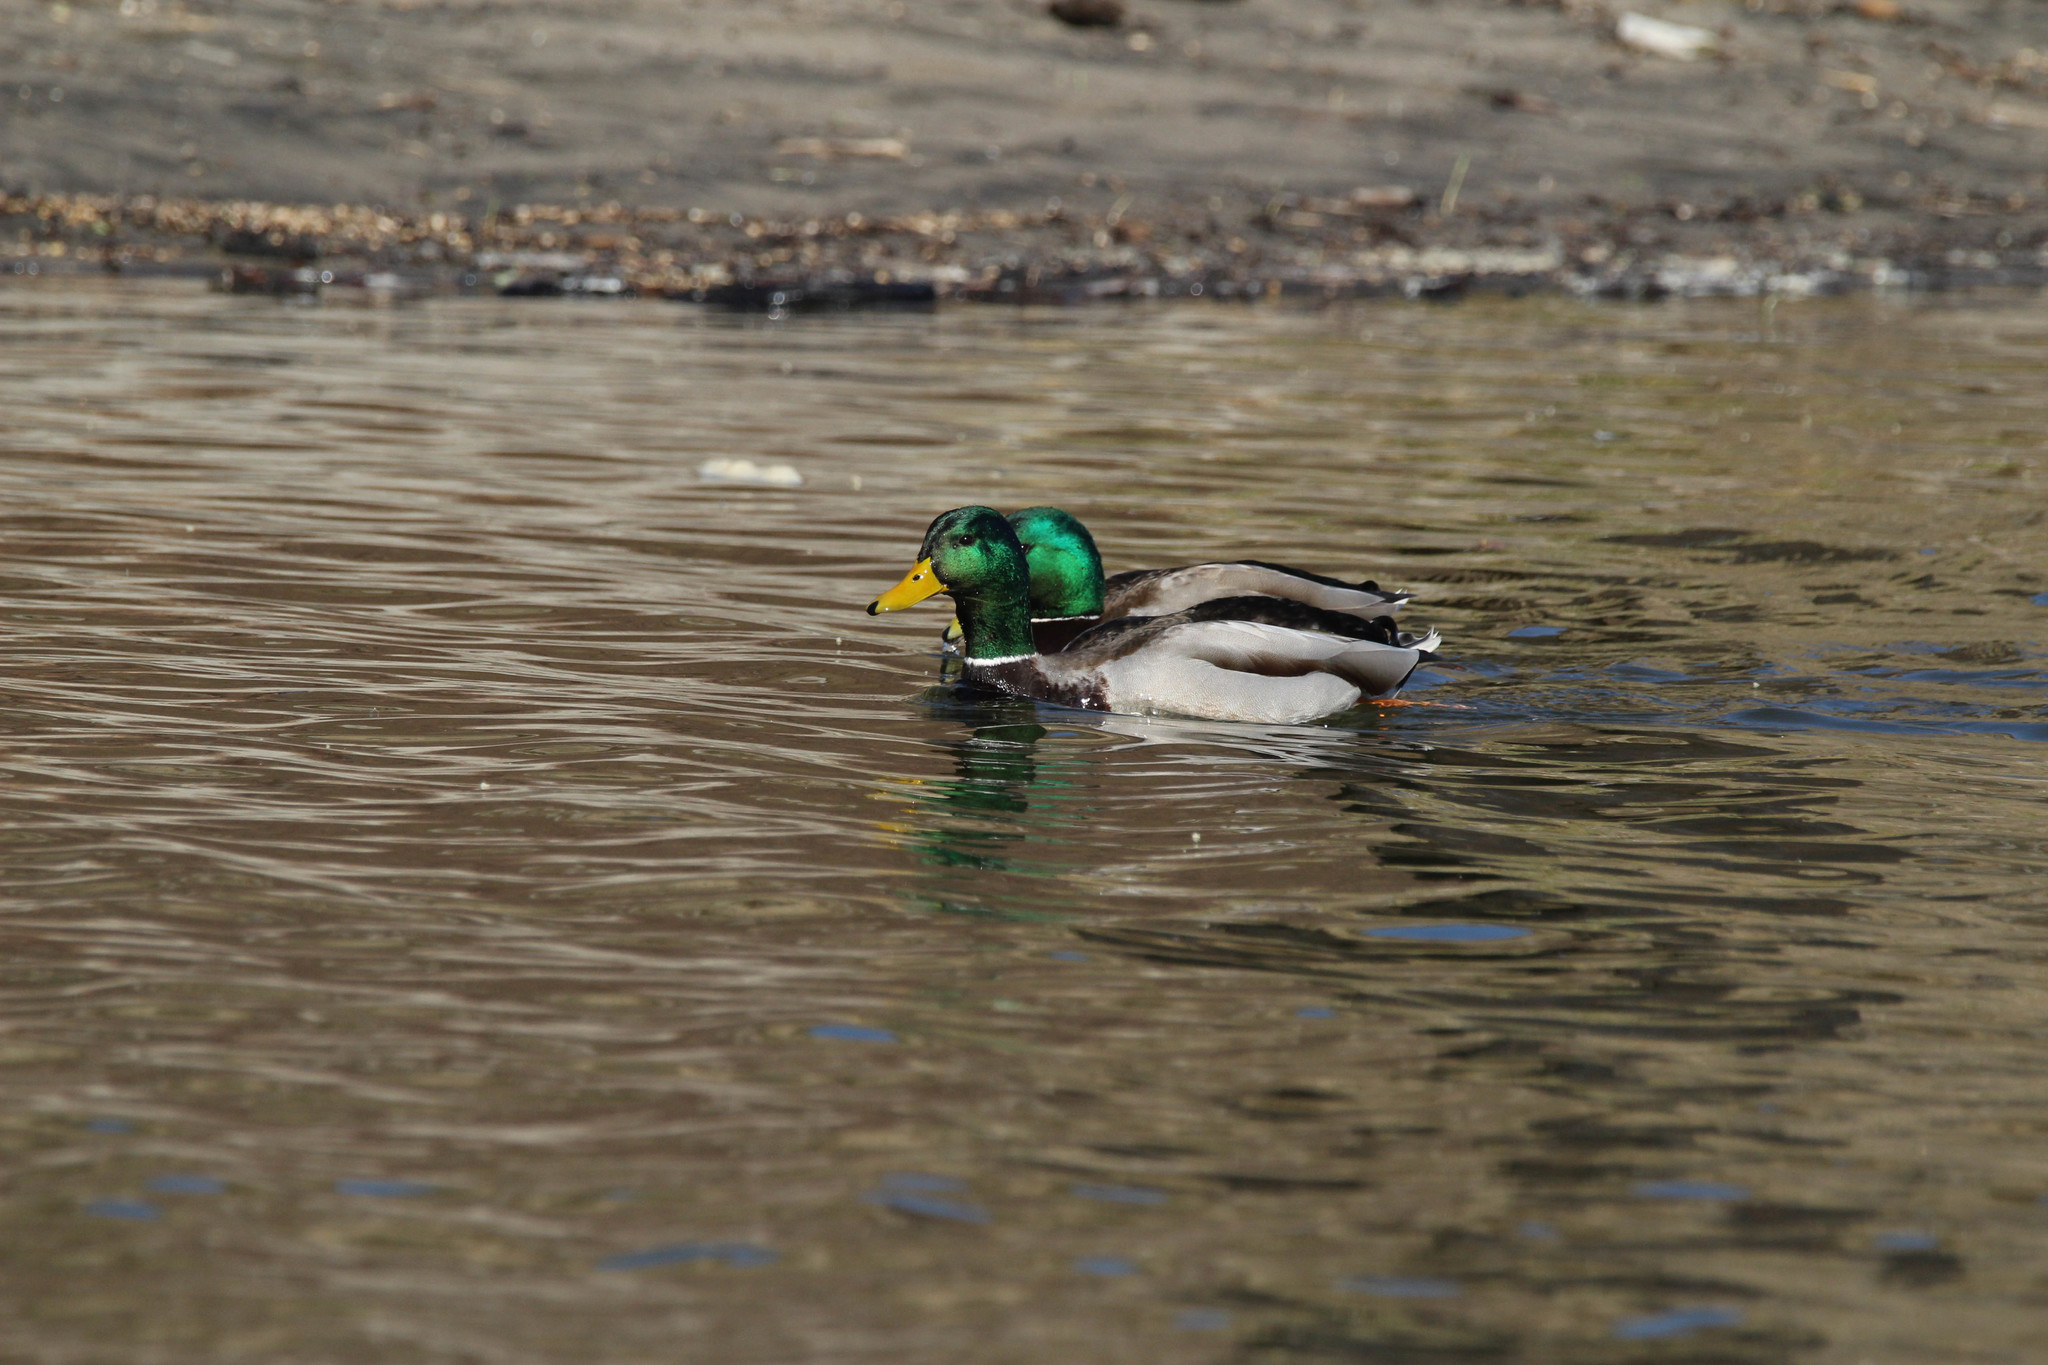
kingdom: Animalia
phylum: Chordata
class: Aves
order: Anseriformes
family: Anatidae
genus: Anas
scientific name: Anas platyrhynchos
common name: Mallard
